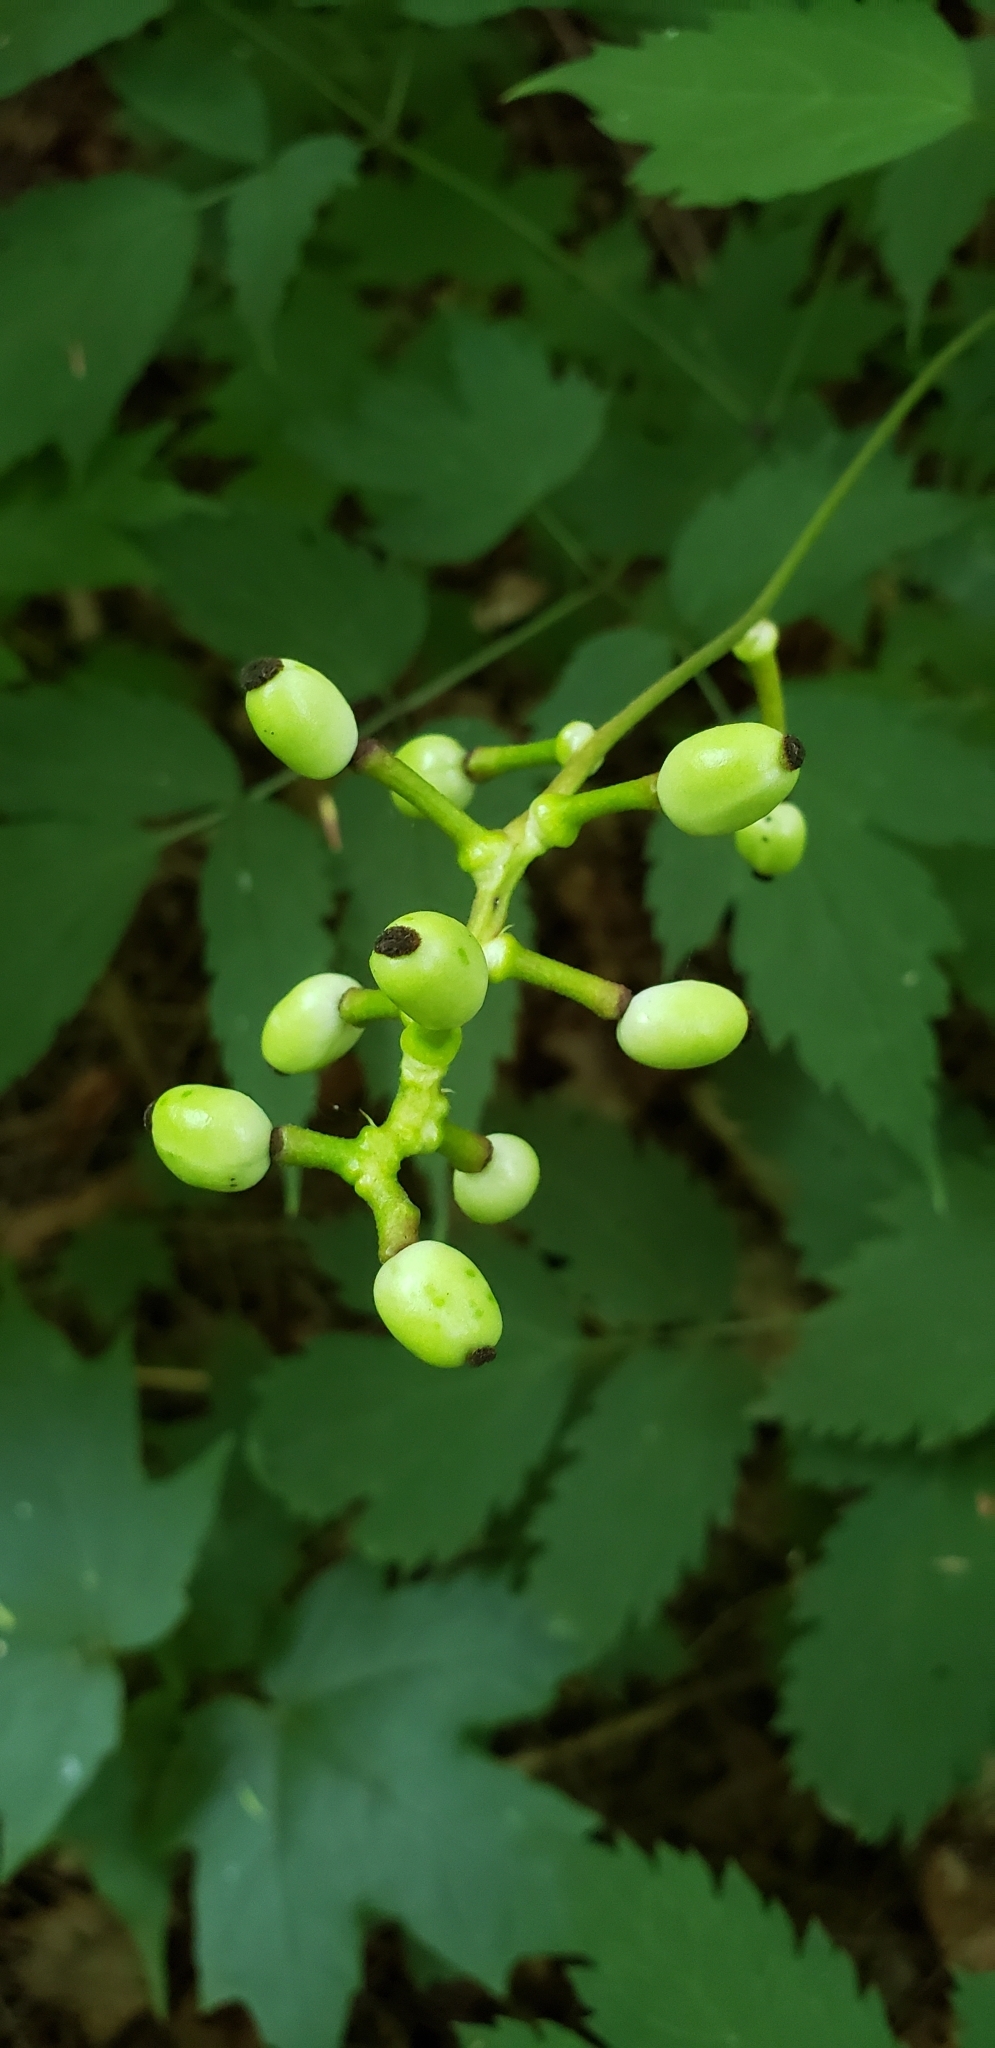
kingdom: Plantae
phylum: Tracheophyta
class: Magnoliopsida
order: Ranunculales
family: Ranunculaceae
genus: Actaea
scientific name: Actaea pachypoda
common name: Doll's-eyes
